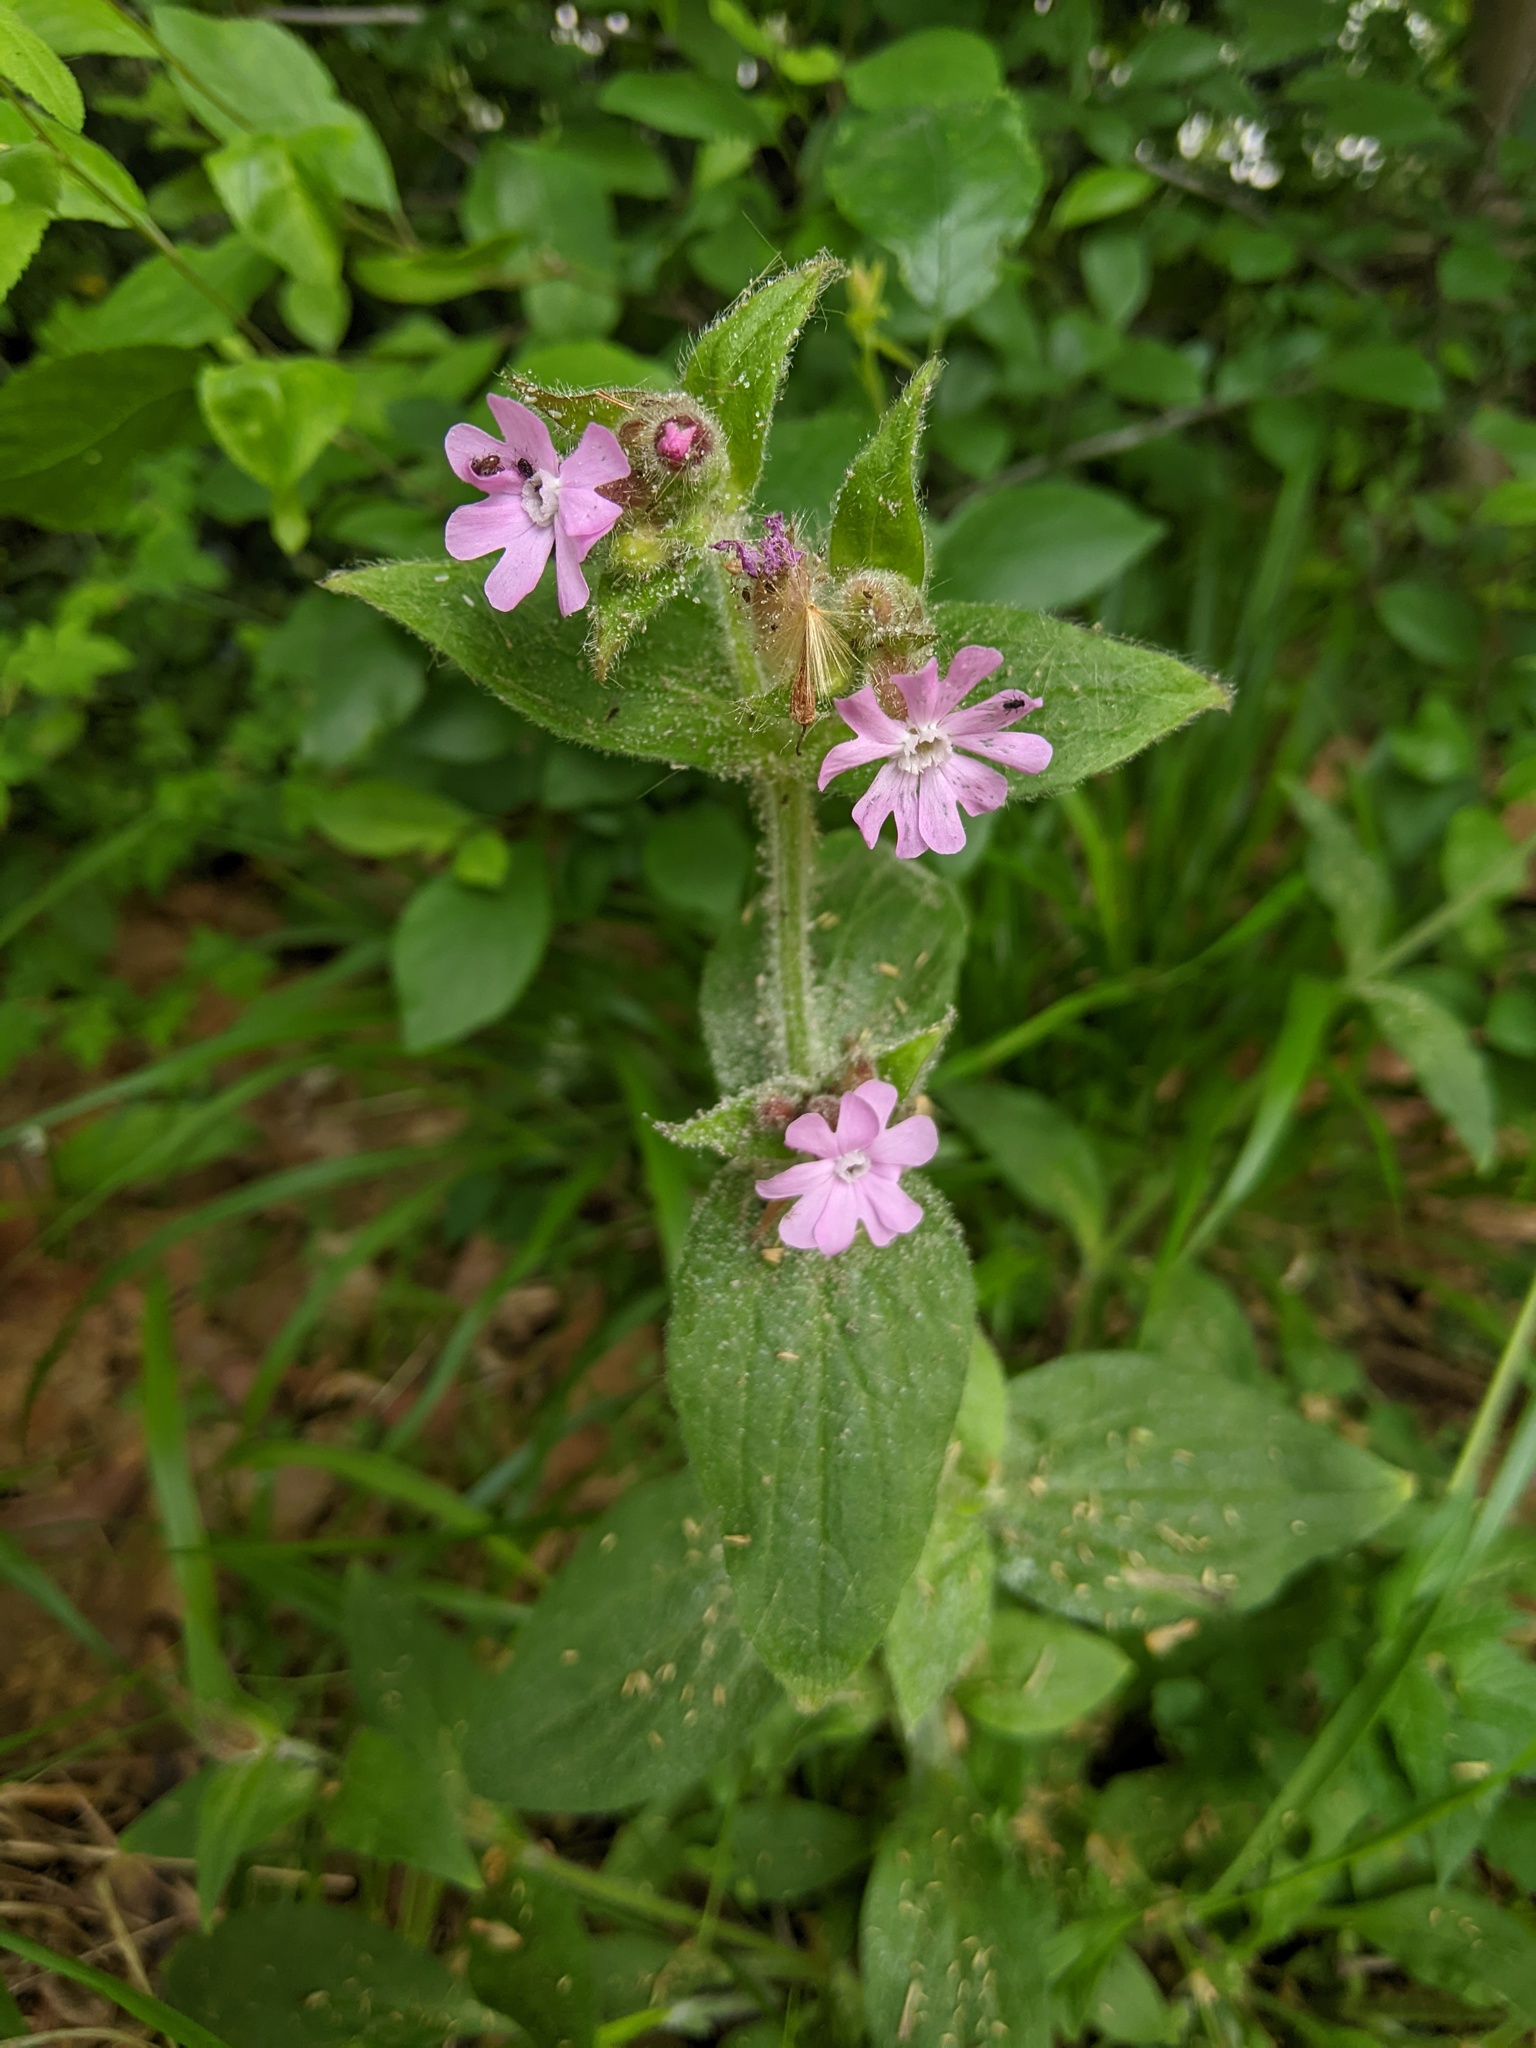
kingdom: Plantae
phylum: Tracheophyta
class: Magnoliopsida
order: Caryophyllales
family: Caryophyllaceae
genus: Silene
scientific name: Silene dioica
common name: Red campion
